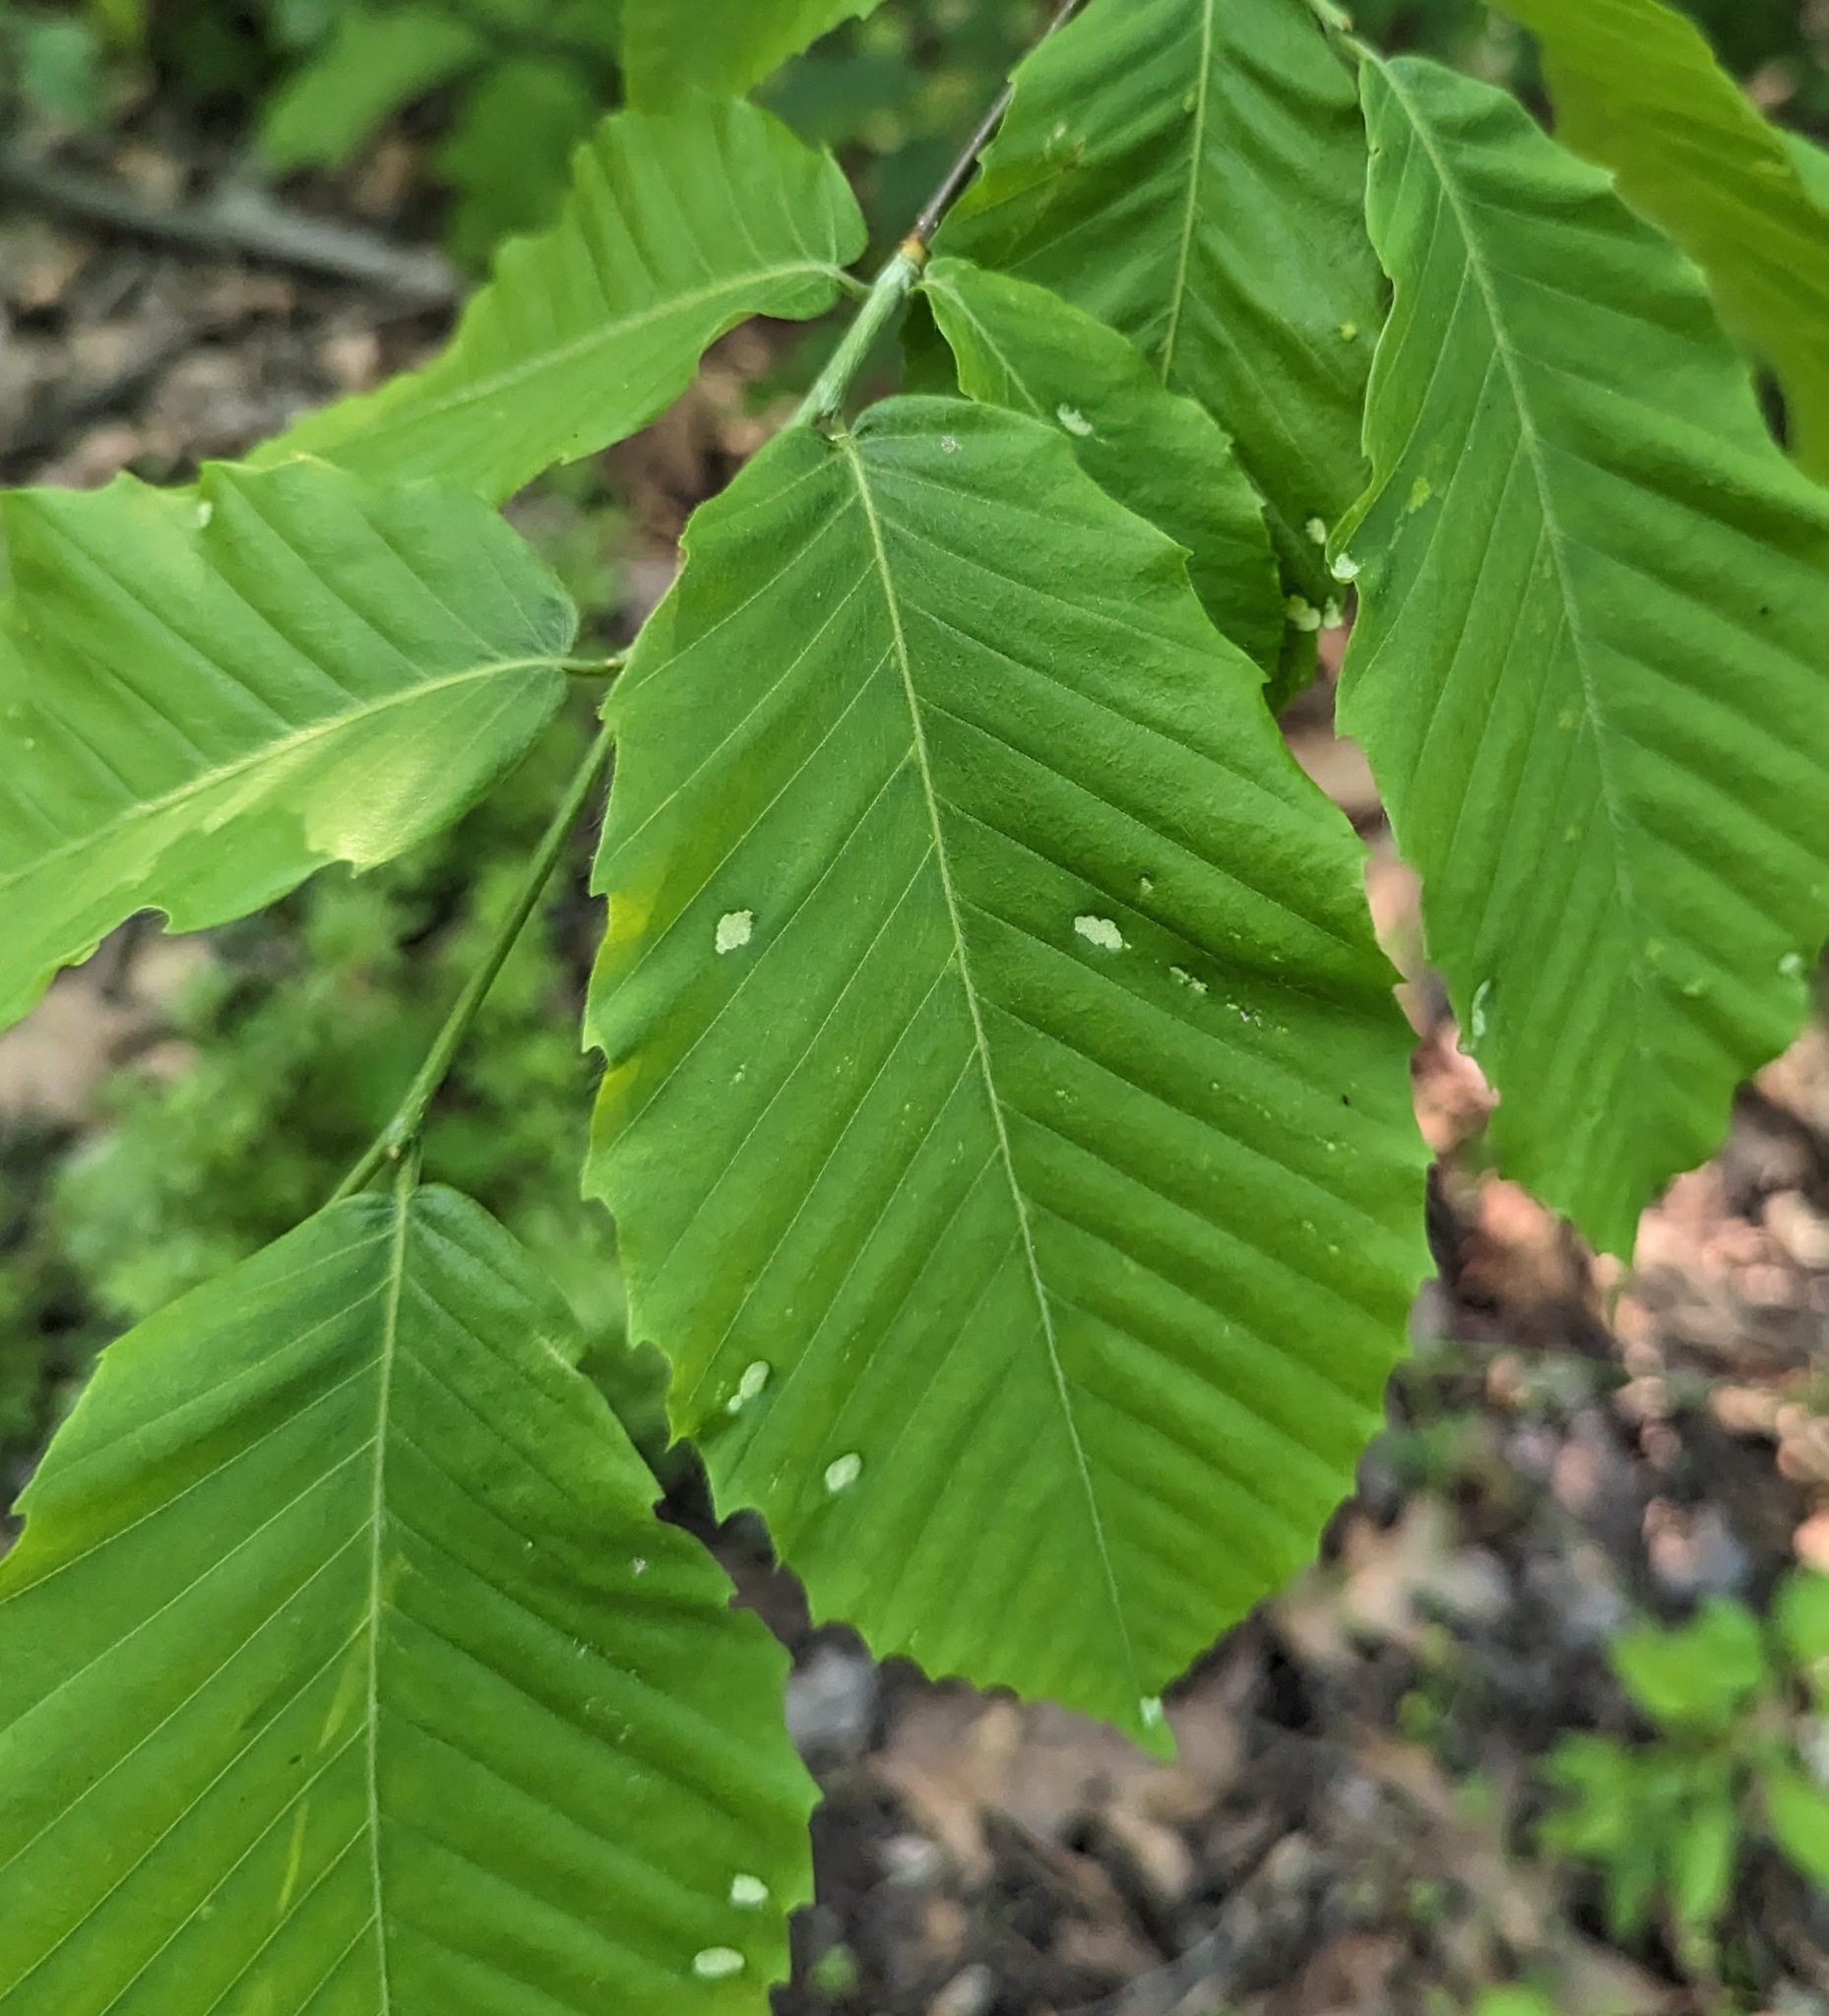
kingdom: Animalia
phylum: Arthropoda
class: Arachnida
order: Trombidiformes
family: Eriophyidae
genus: Acalitus
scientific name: Acalitus
